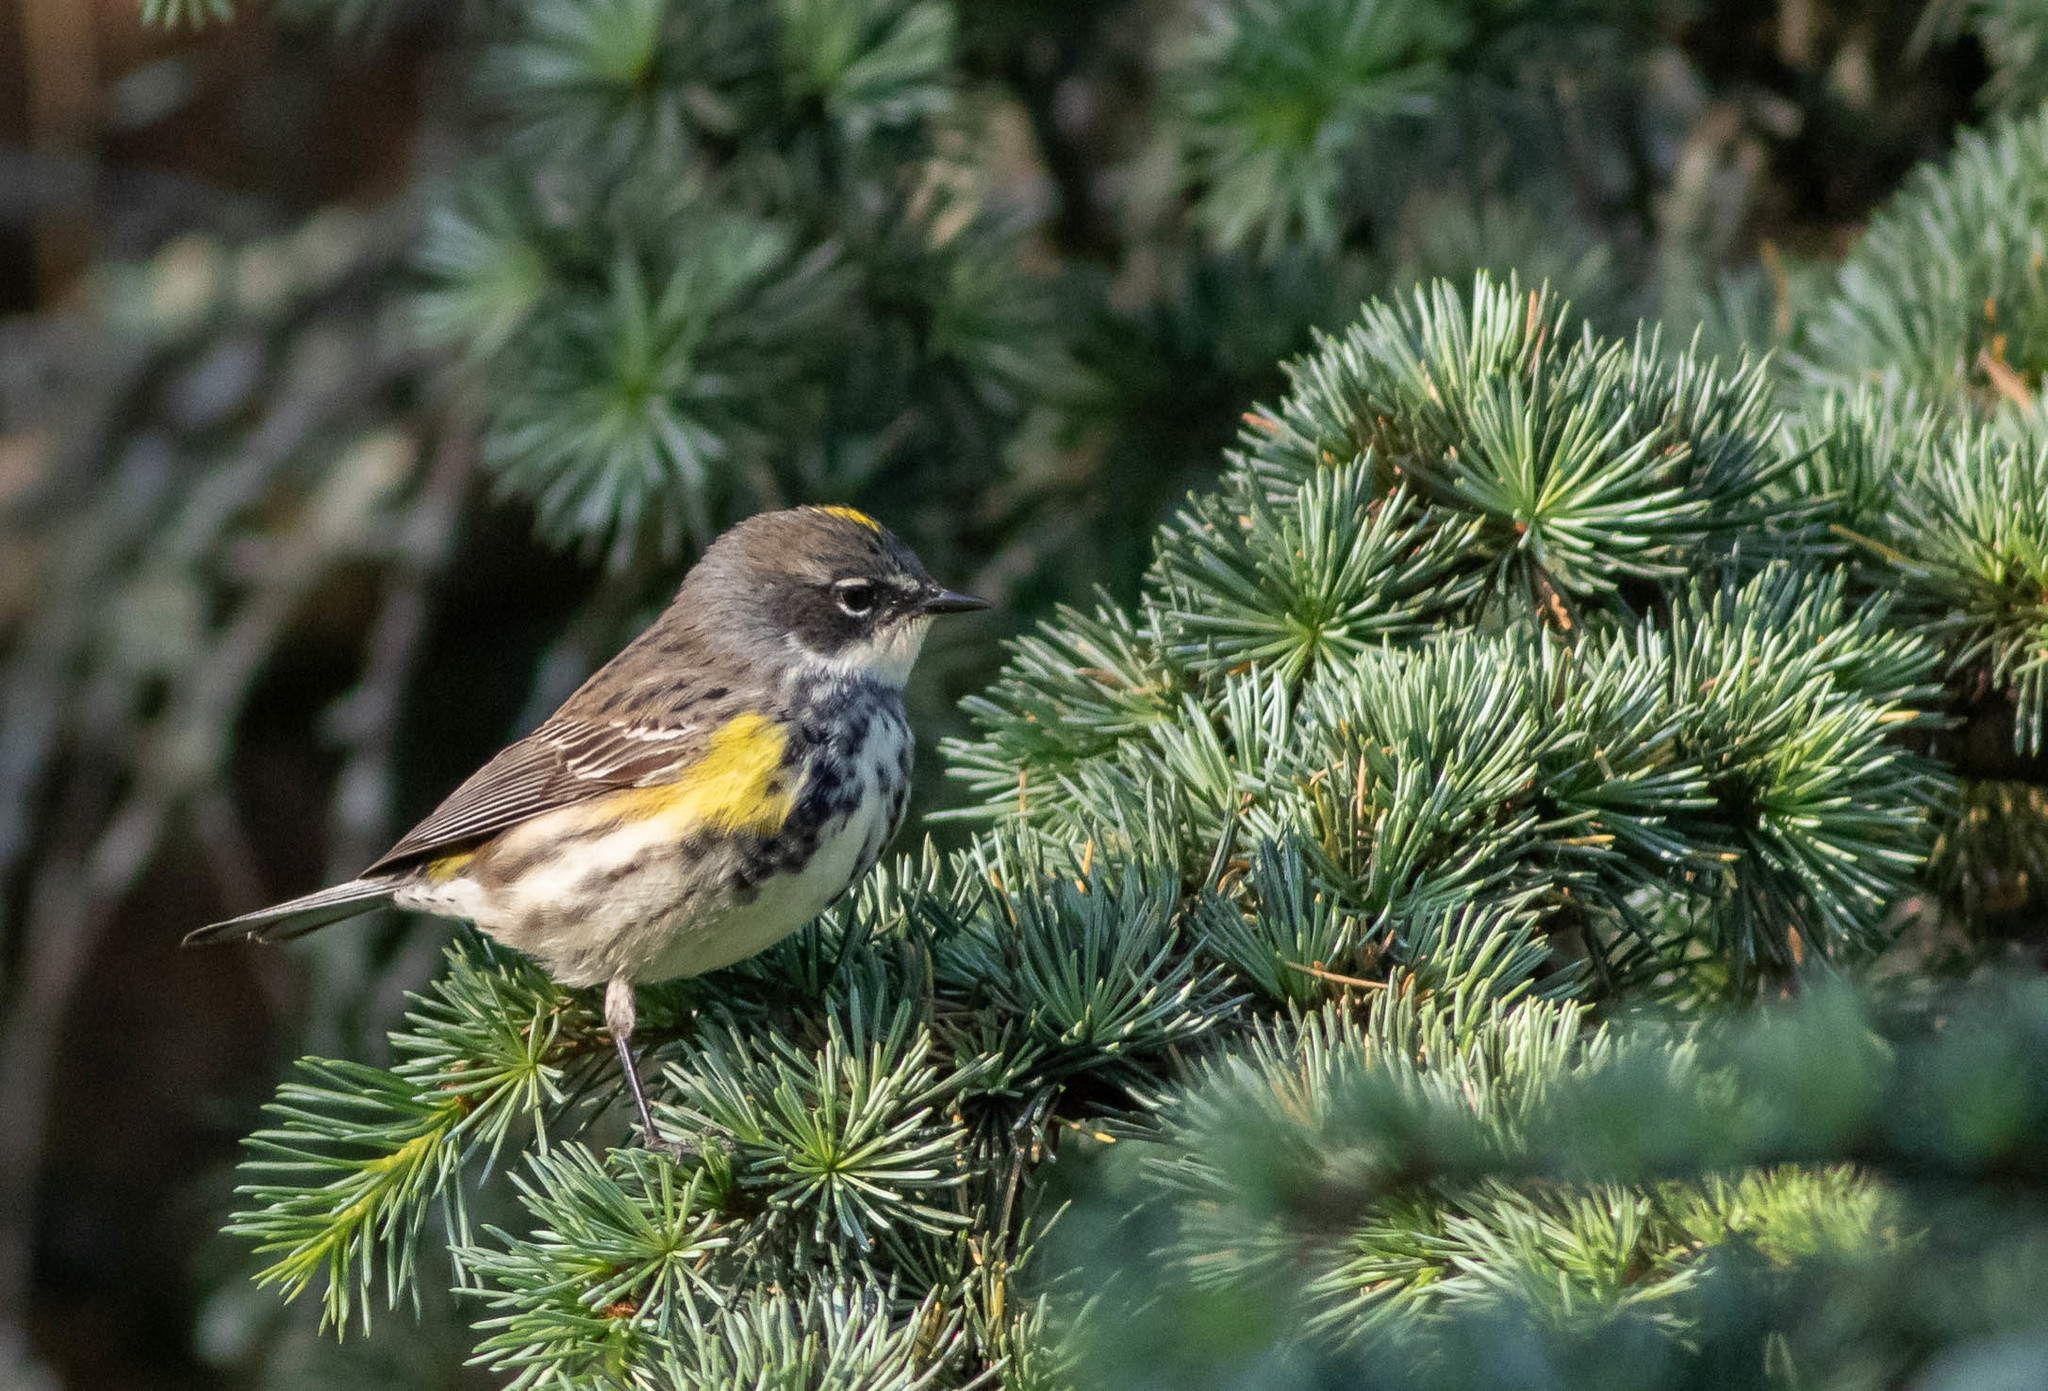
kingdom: Animalia
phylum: Chordata
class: Aves
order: Passeriformes
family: Parulidae
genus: Setophaga
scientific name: Setophaga coronata
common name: Myrtle warbler
